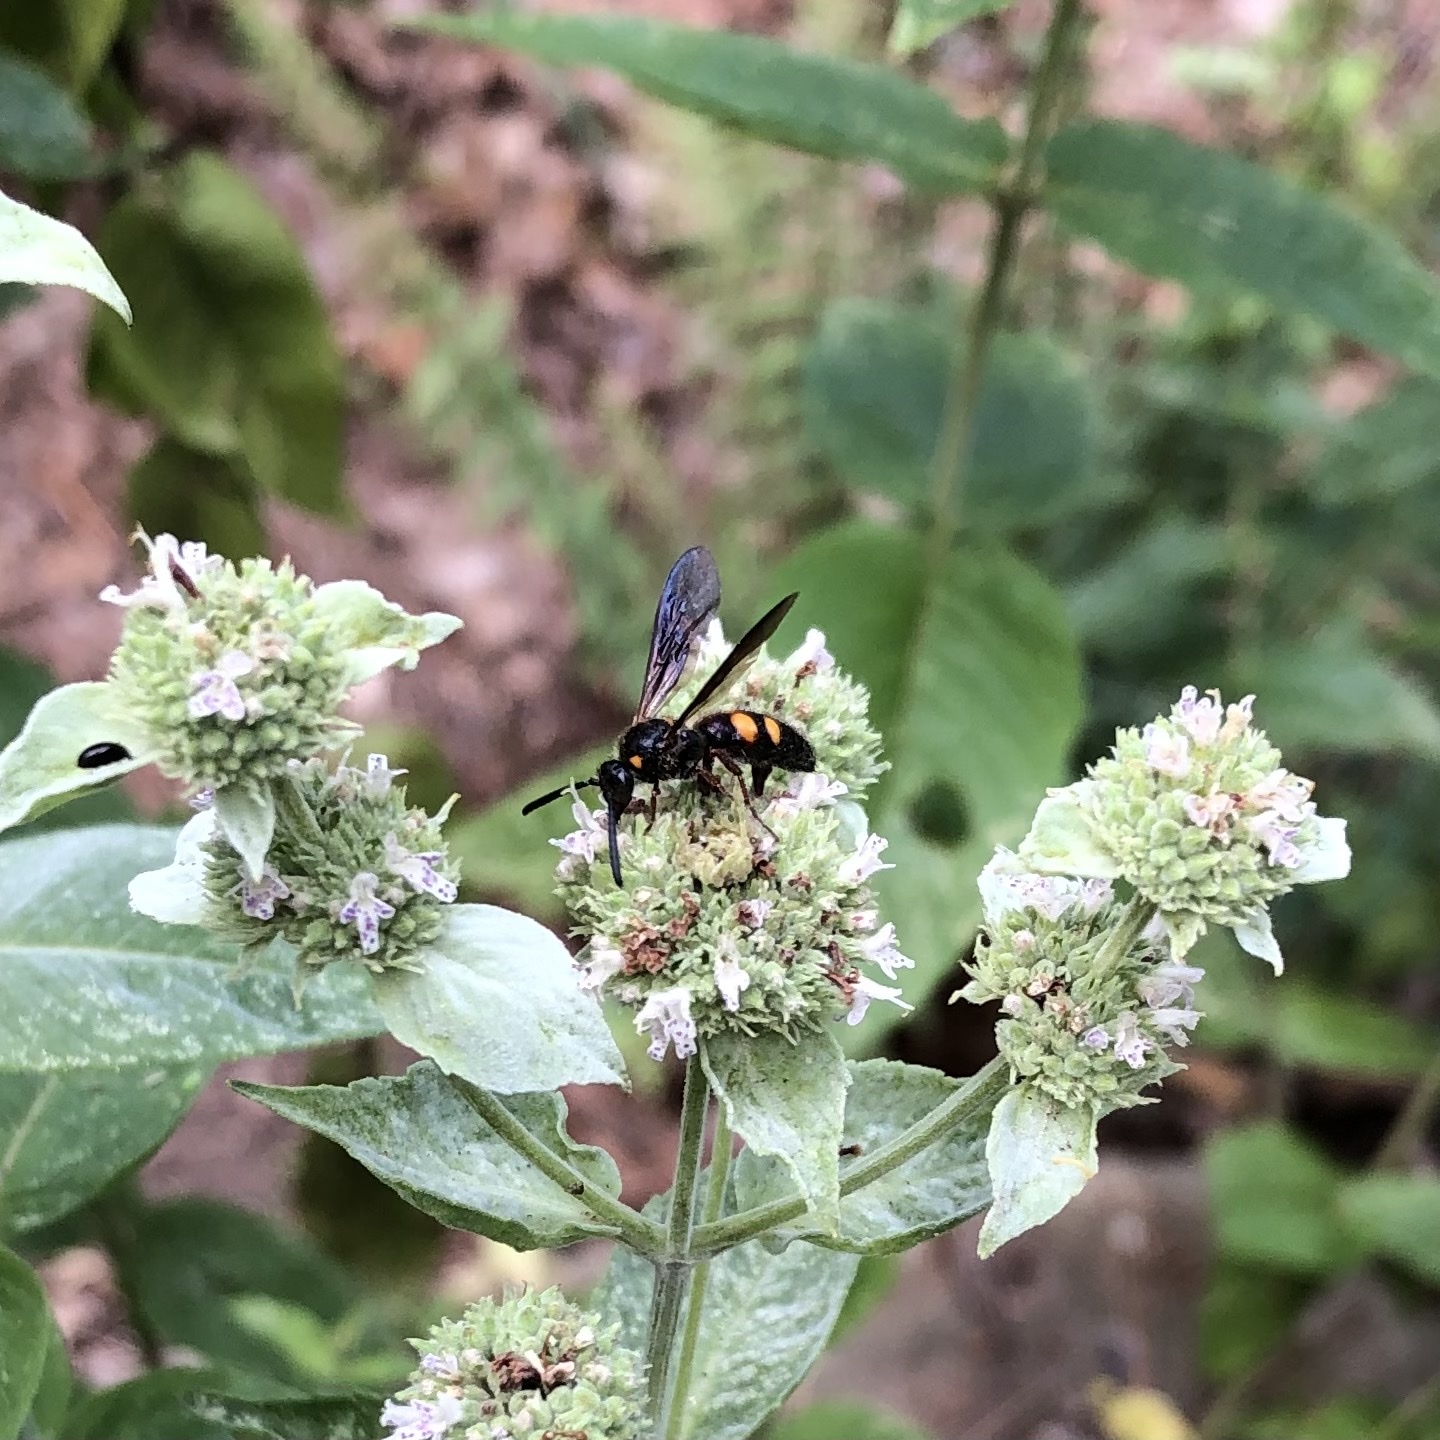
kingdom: Animalia
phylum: Arthropoda
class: Insecta
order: Hymenoptera
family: Scoliidae
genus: Scolia
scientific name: Scolia nobilitata
